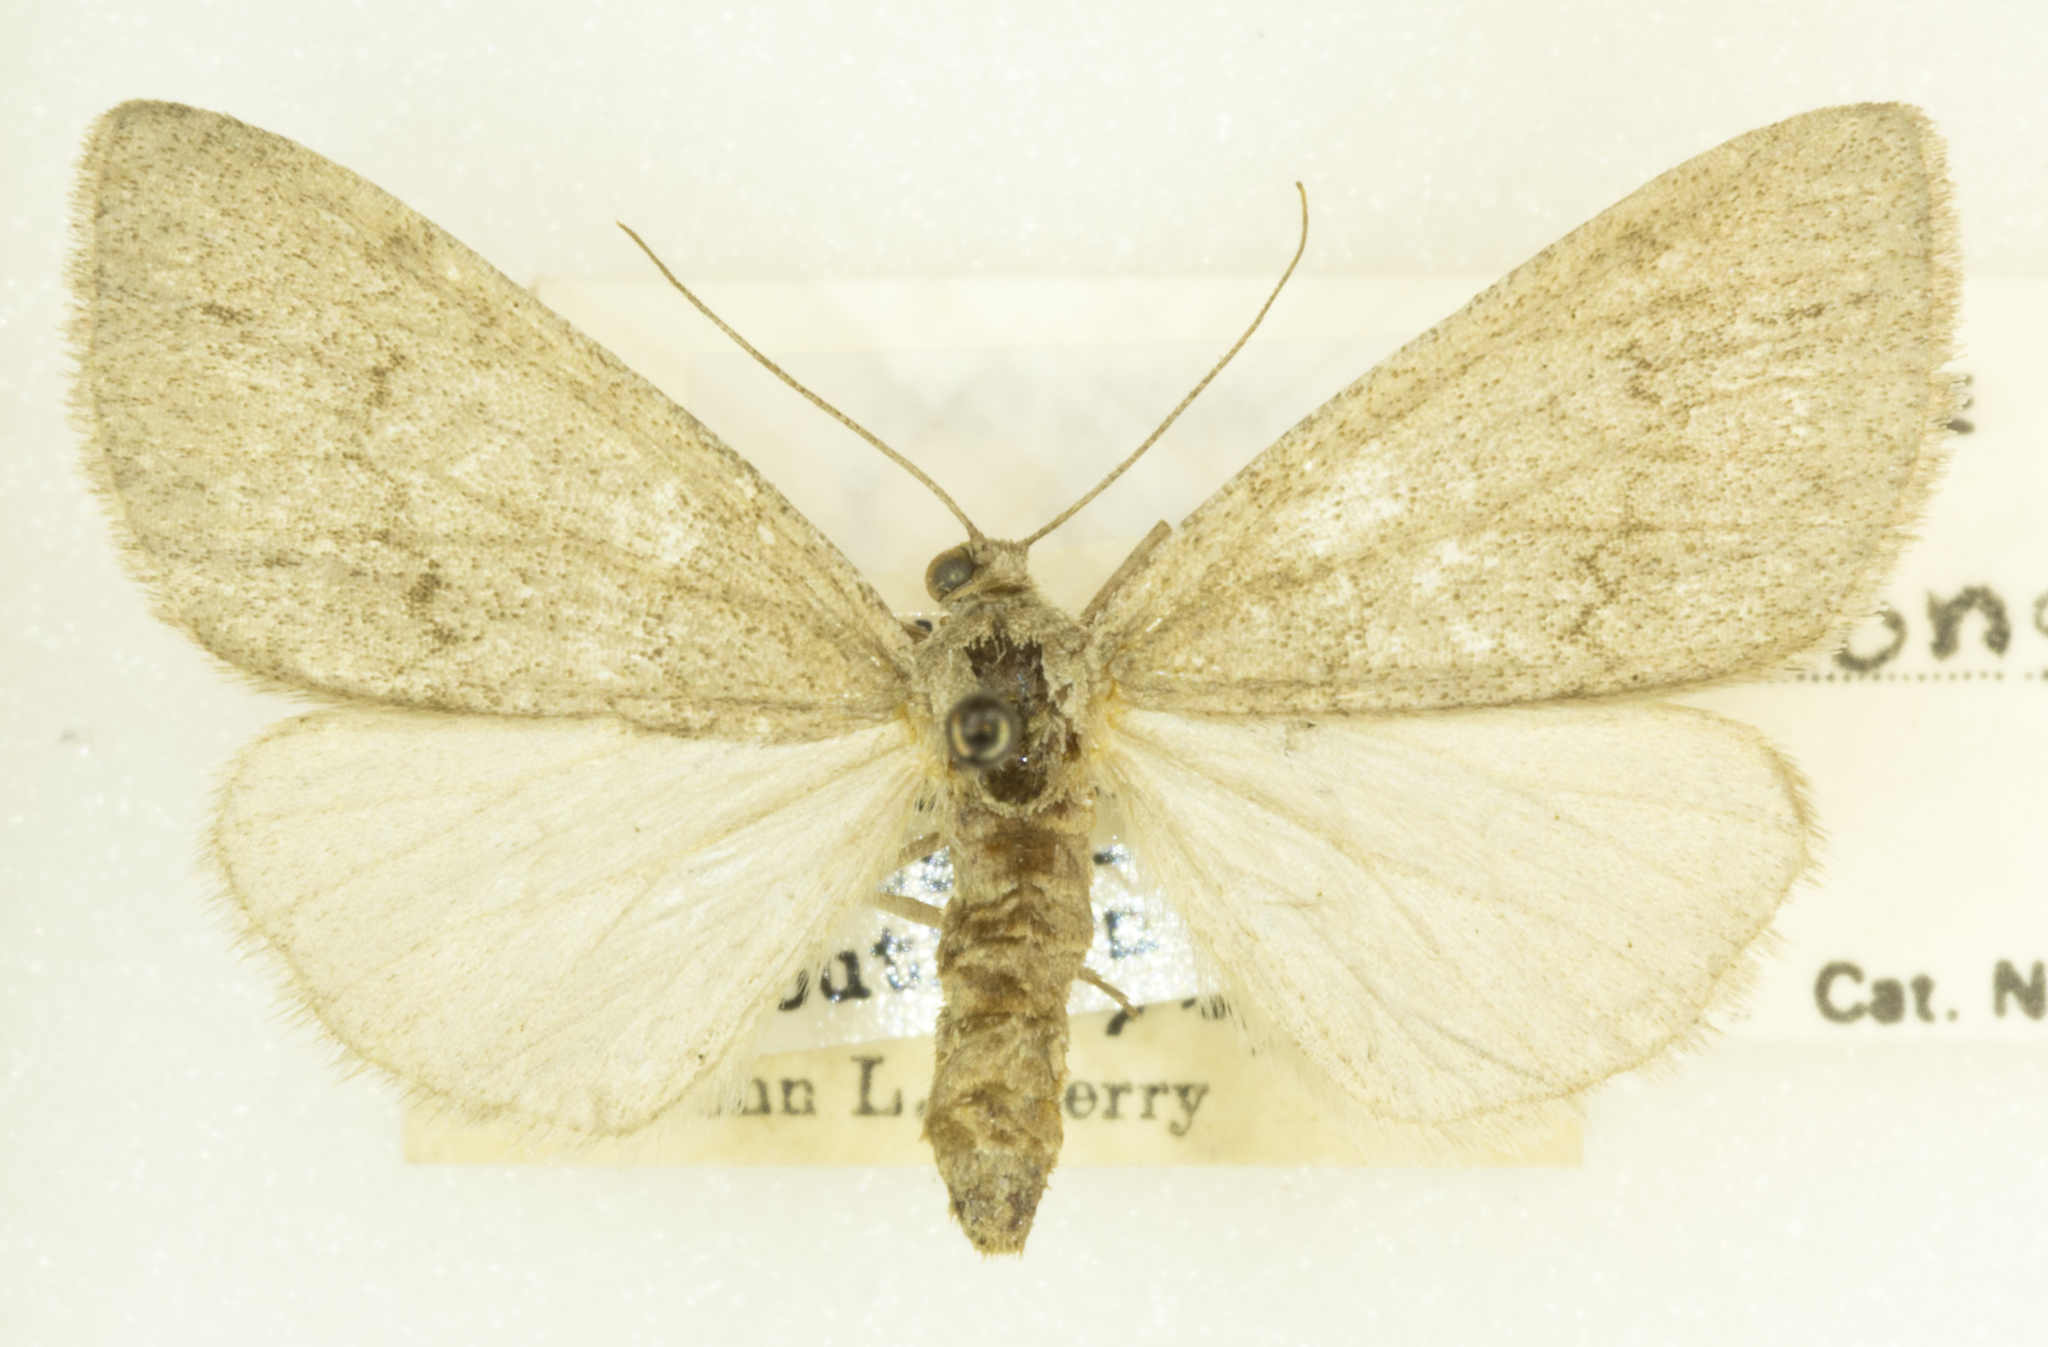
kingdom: Animalia
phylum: Arthropoda
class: Insecta
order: Lepidoptera
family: Geometridae
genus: Carphoides
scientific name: Carphoides inconspicuaria
